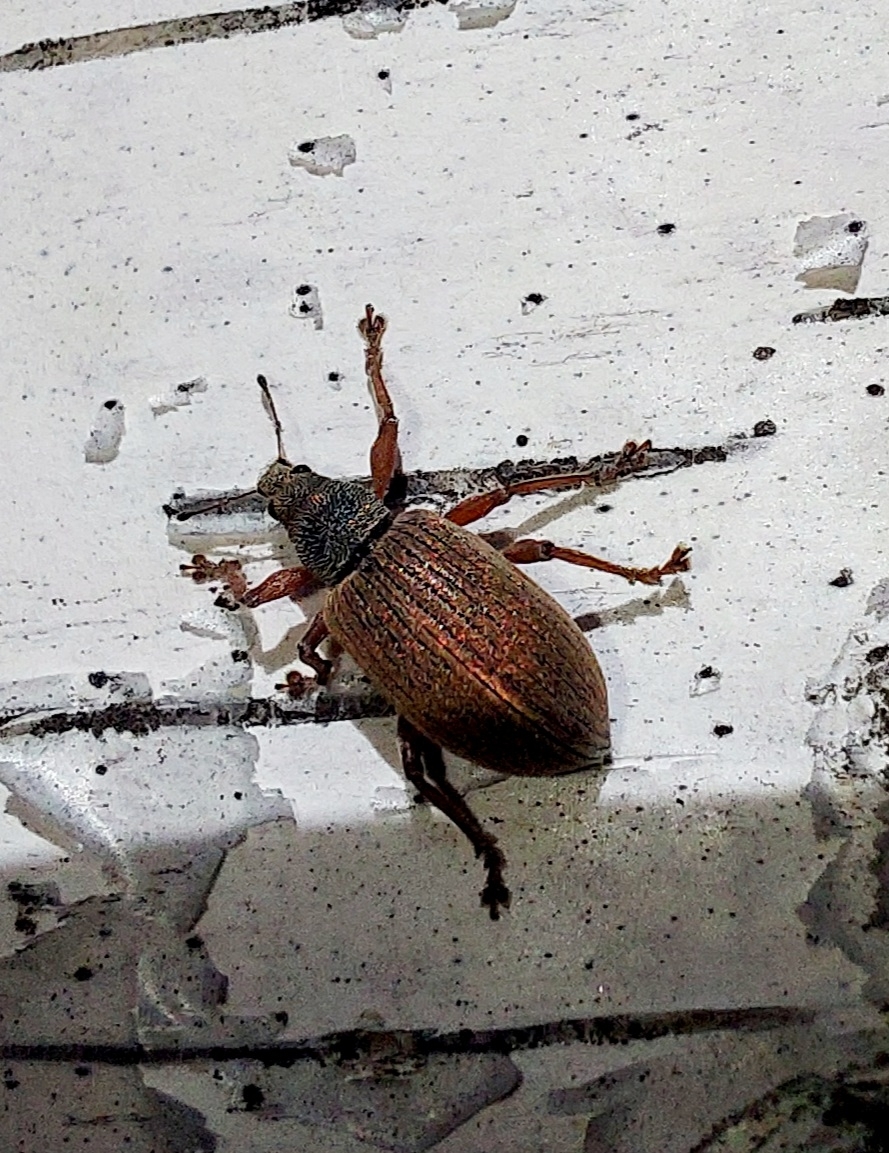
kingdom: Animalia
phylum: Arthropoda
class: Insecta
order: Coleoptera
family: Curculionidae
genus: Polydrusus
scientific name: Polydrusus mollis
